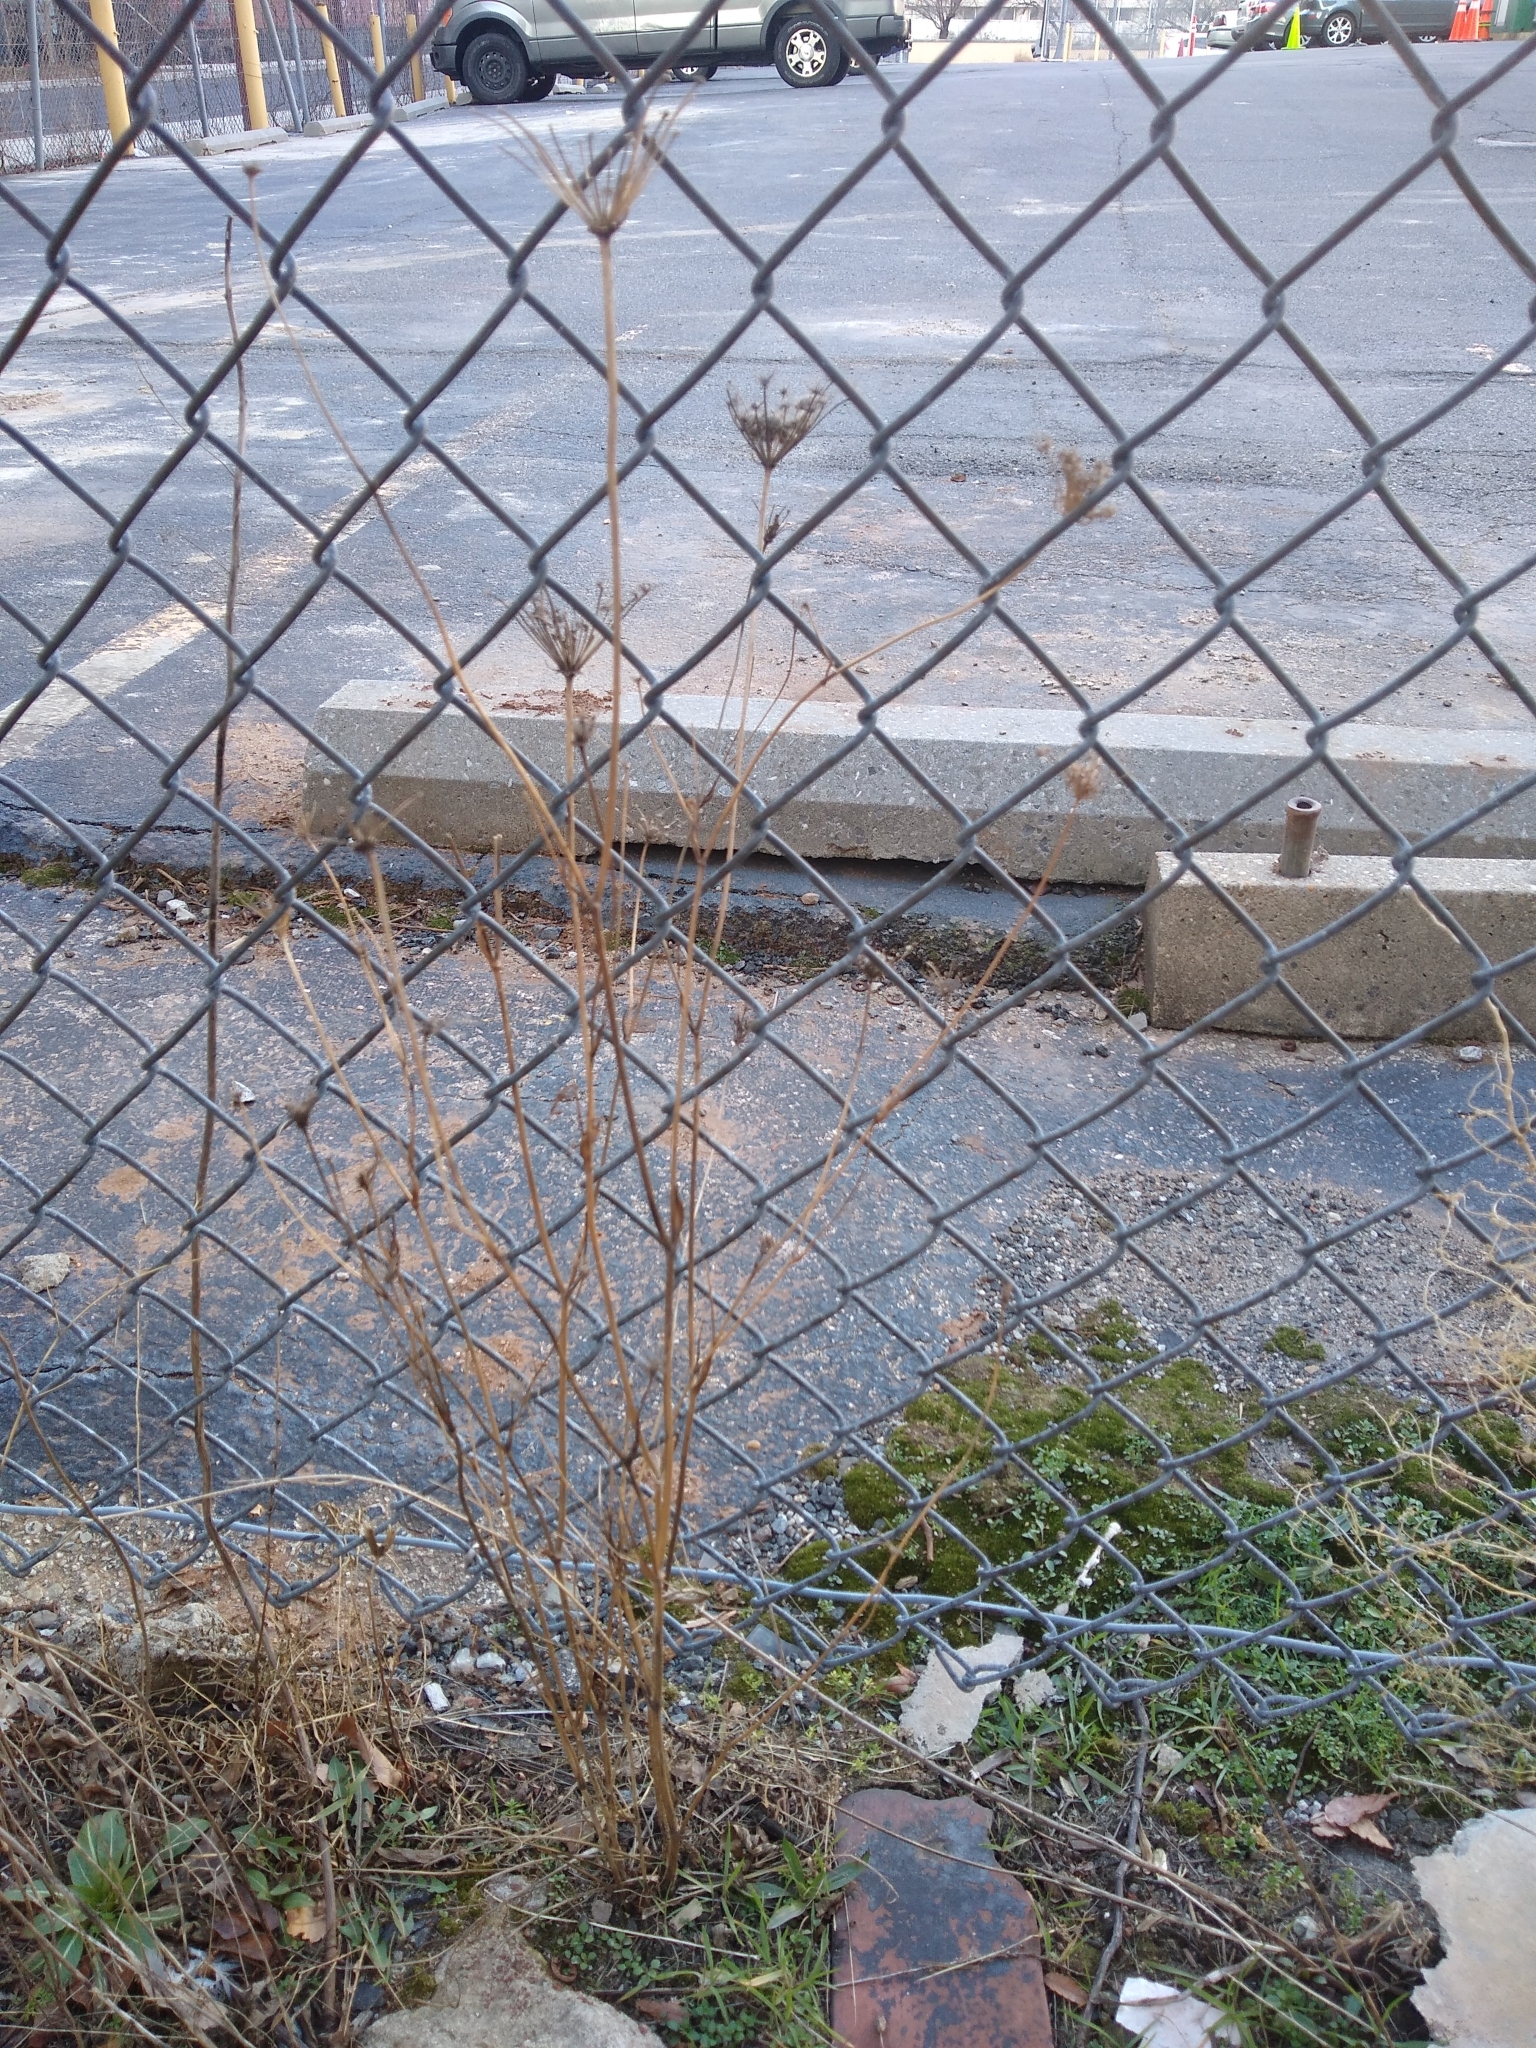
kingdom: Plantae
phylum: Tracheophyta
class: Magnoliopsida
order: Apiales
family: Apiaceae
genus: Daucus
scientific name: Daucus carota
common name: Wild carrot
